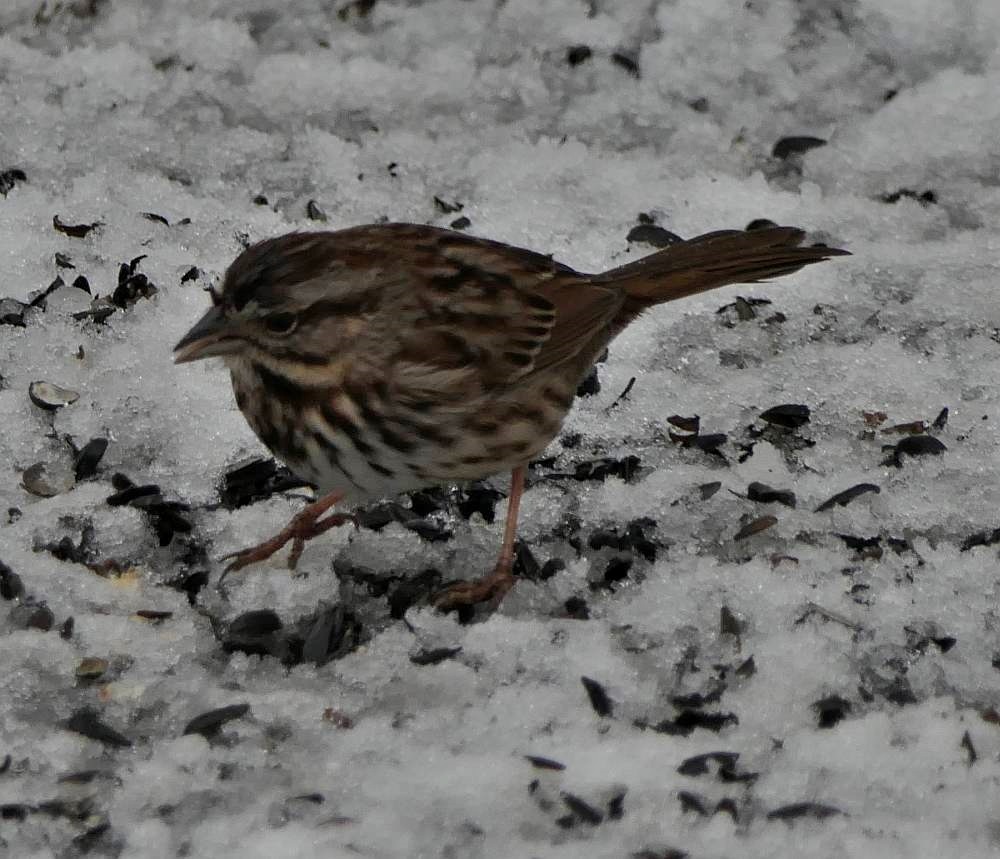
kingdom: Animalia
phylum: Chordata
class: Aves
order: Passeriformes
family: Passerellidae
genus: Melospiza
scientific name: Melospiza melodia
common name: Song sparrow
